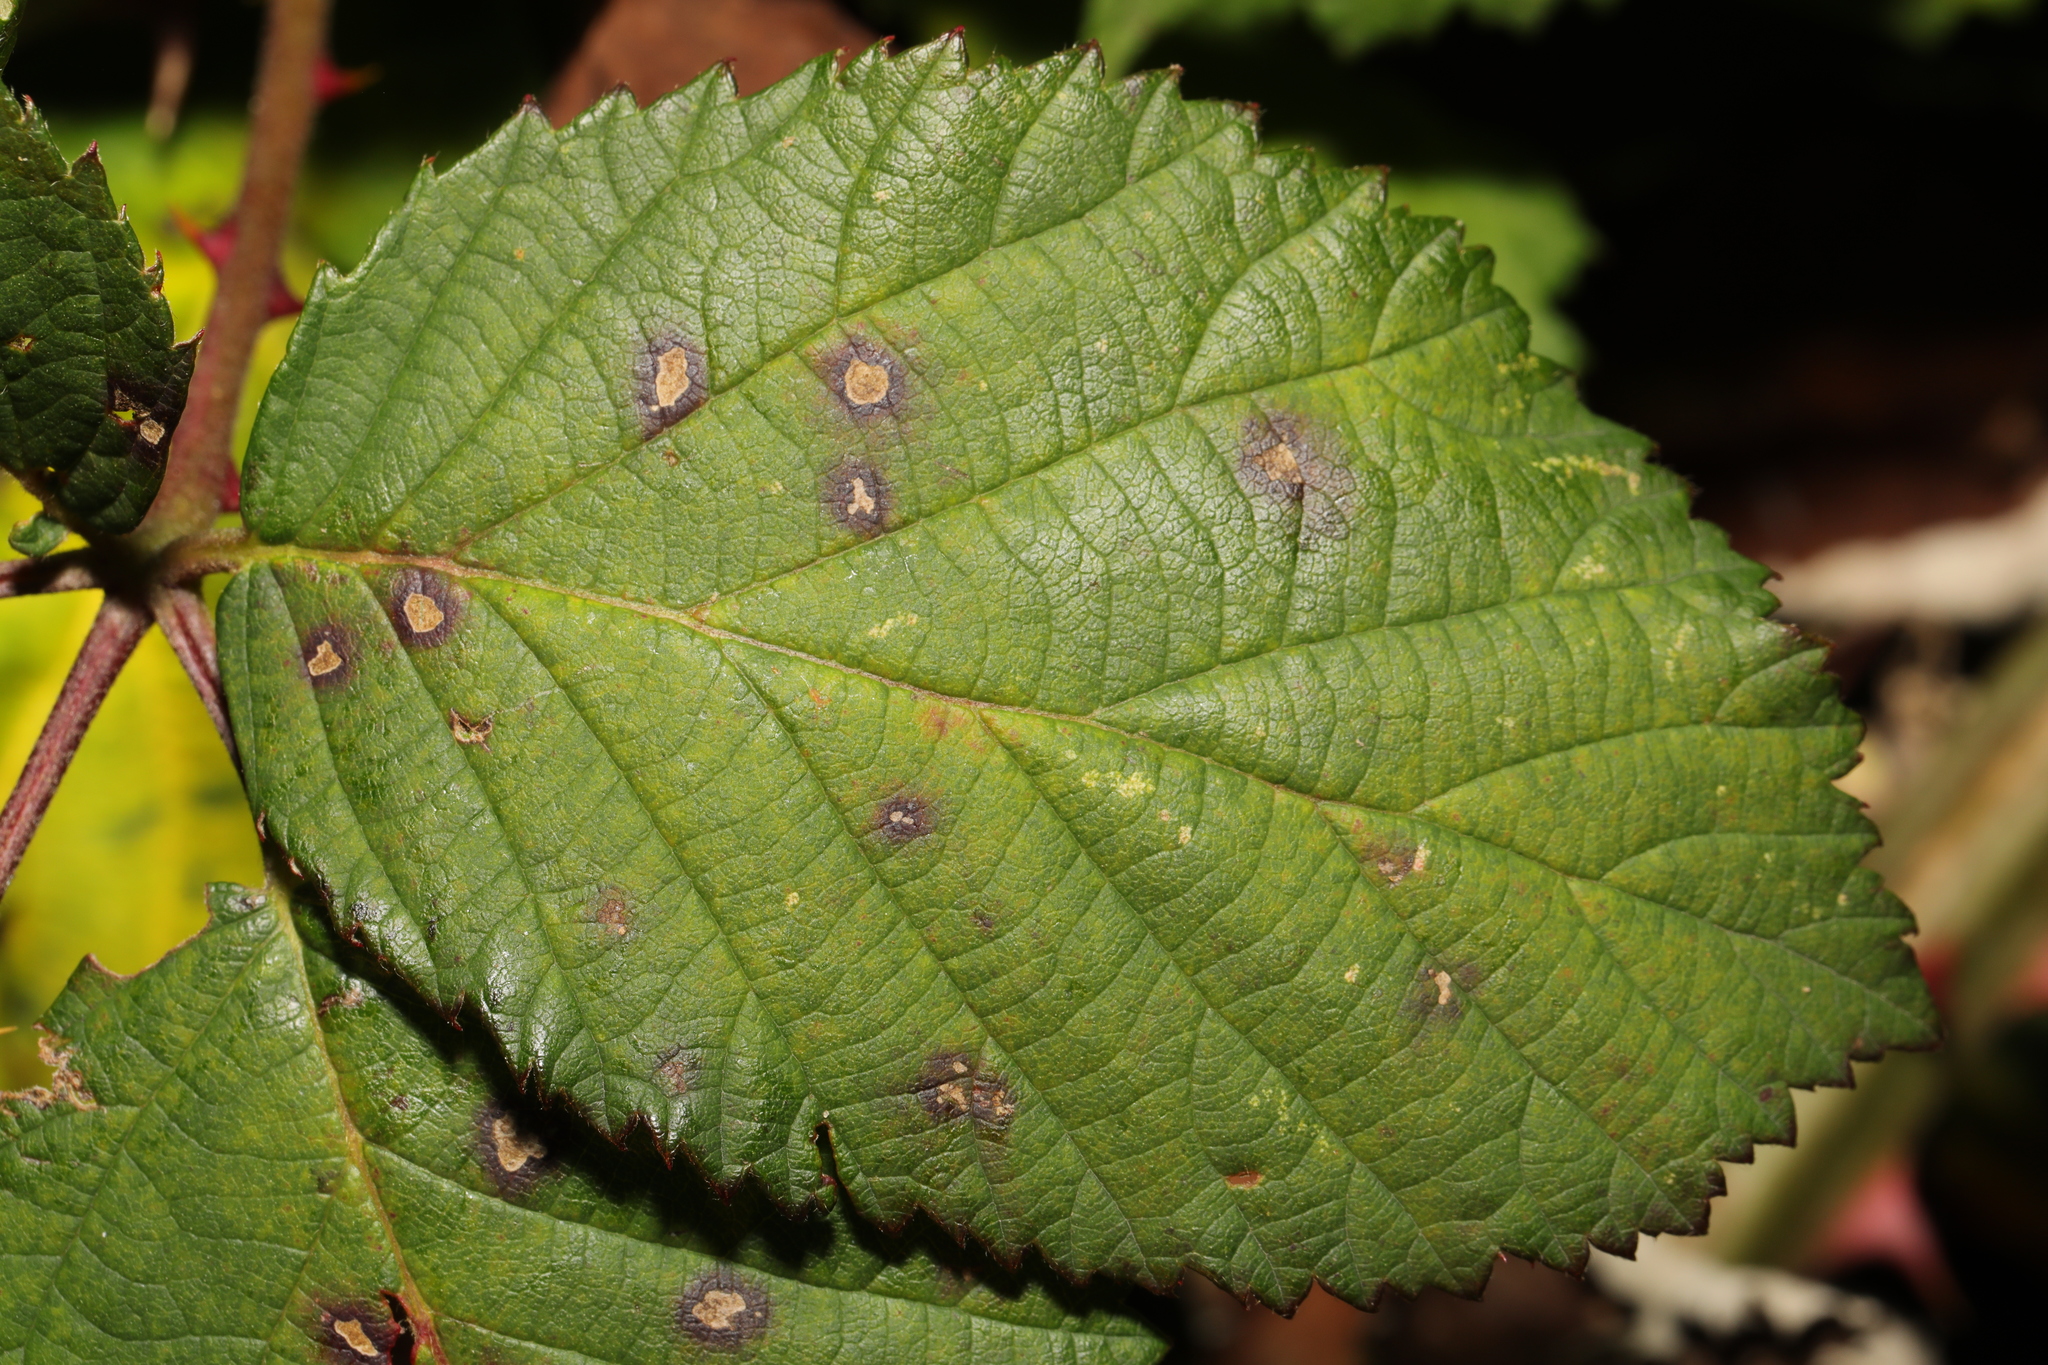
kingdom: Fungi
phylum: Basidiomycota
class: Pucciniomycetes
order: Pucciniales
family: Phragmidiaceae
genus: Phragmidium
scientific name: Phragmidium violaceum
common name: Violet bramble rust
